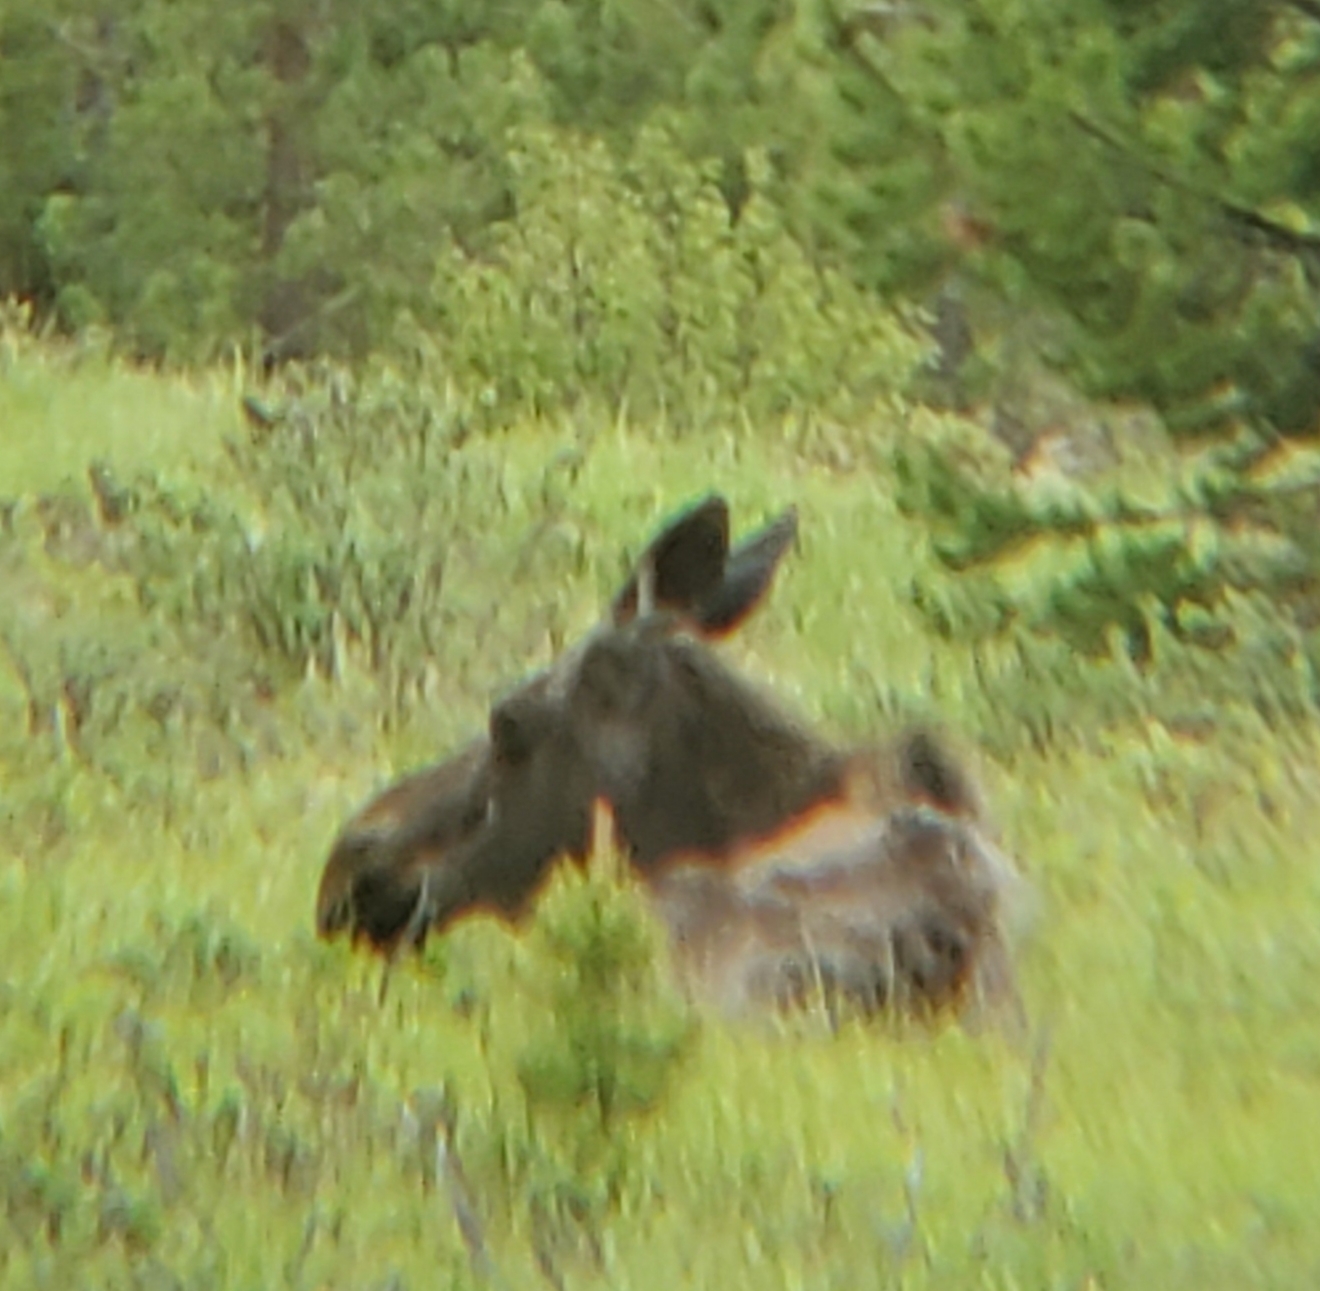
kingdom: Animalia
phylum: Chordata
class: Mammalia
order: Artiodactyla
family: Cervidae
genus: Alces
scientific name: Alces alces
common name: Moose
